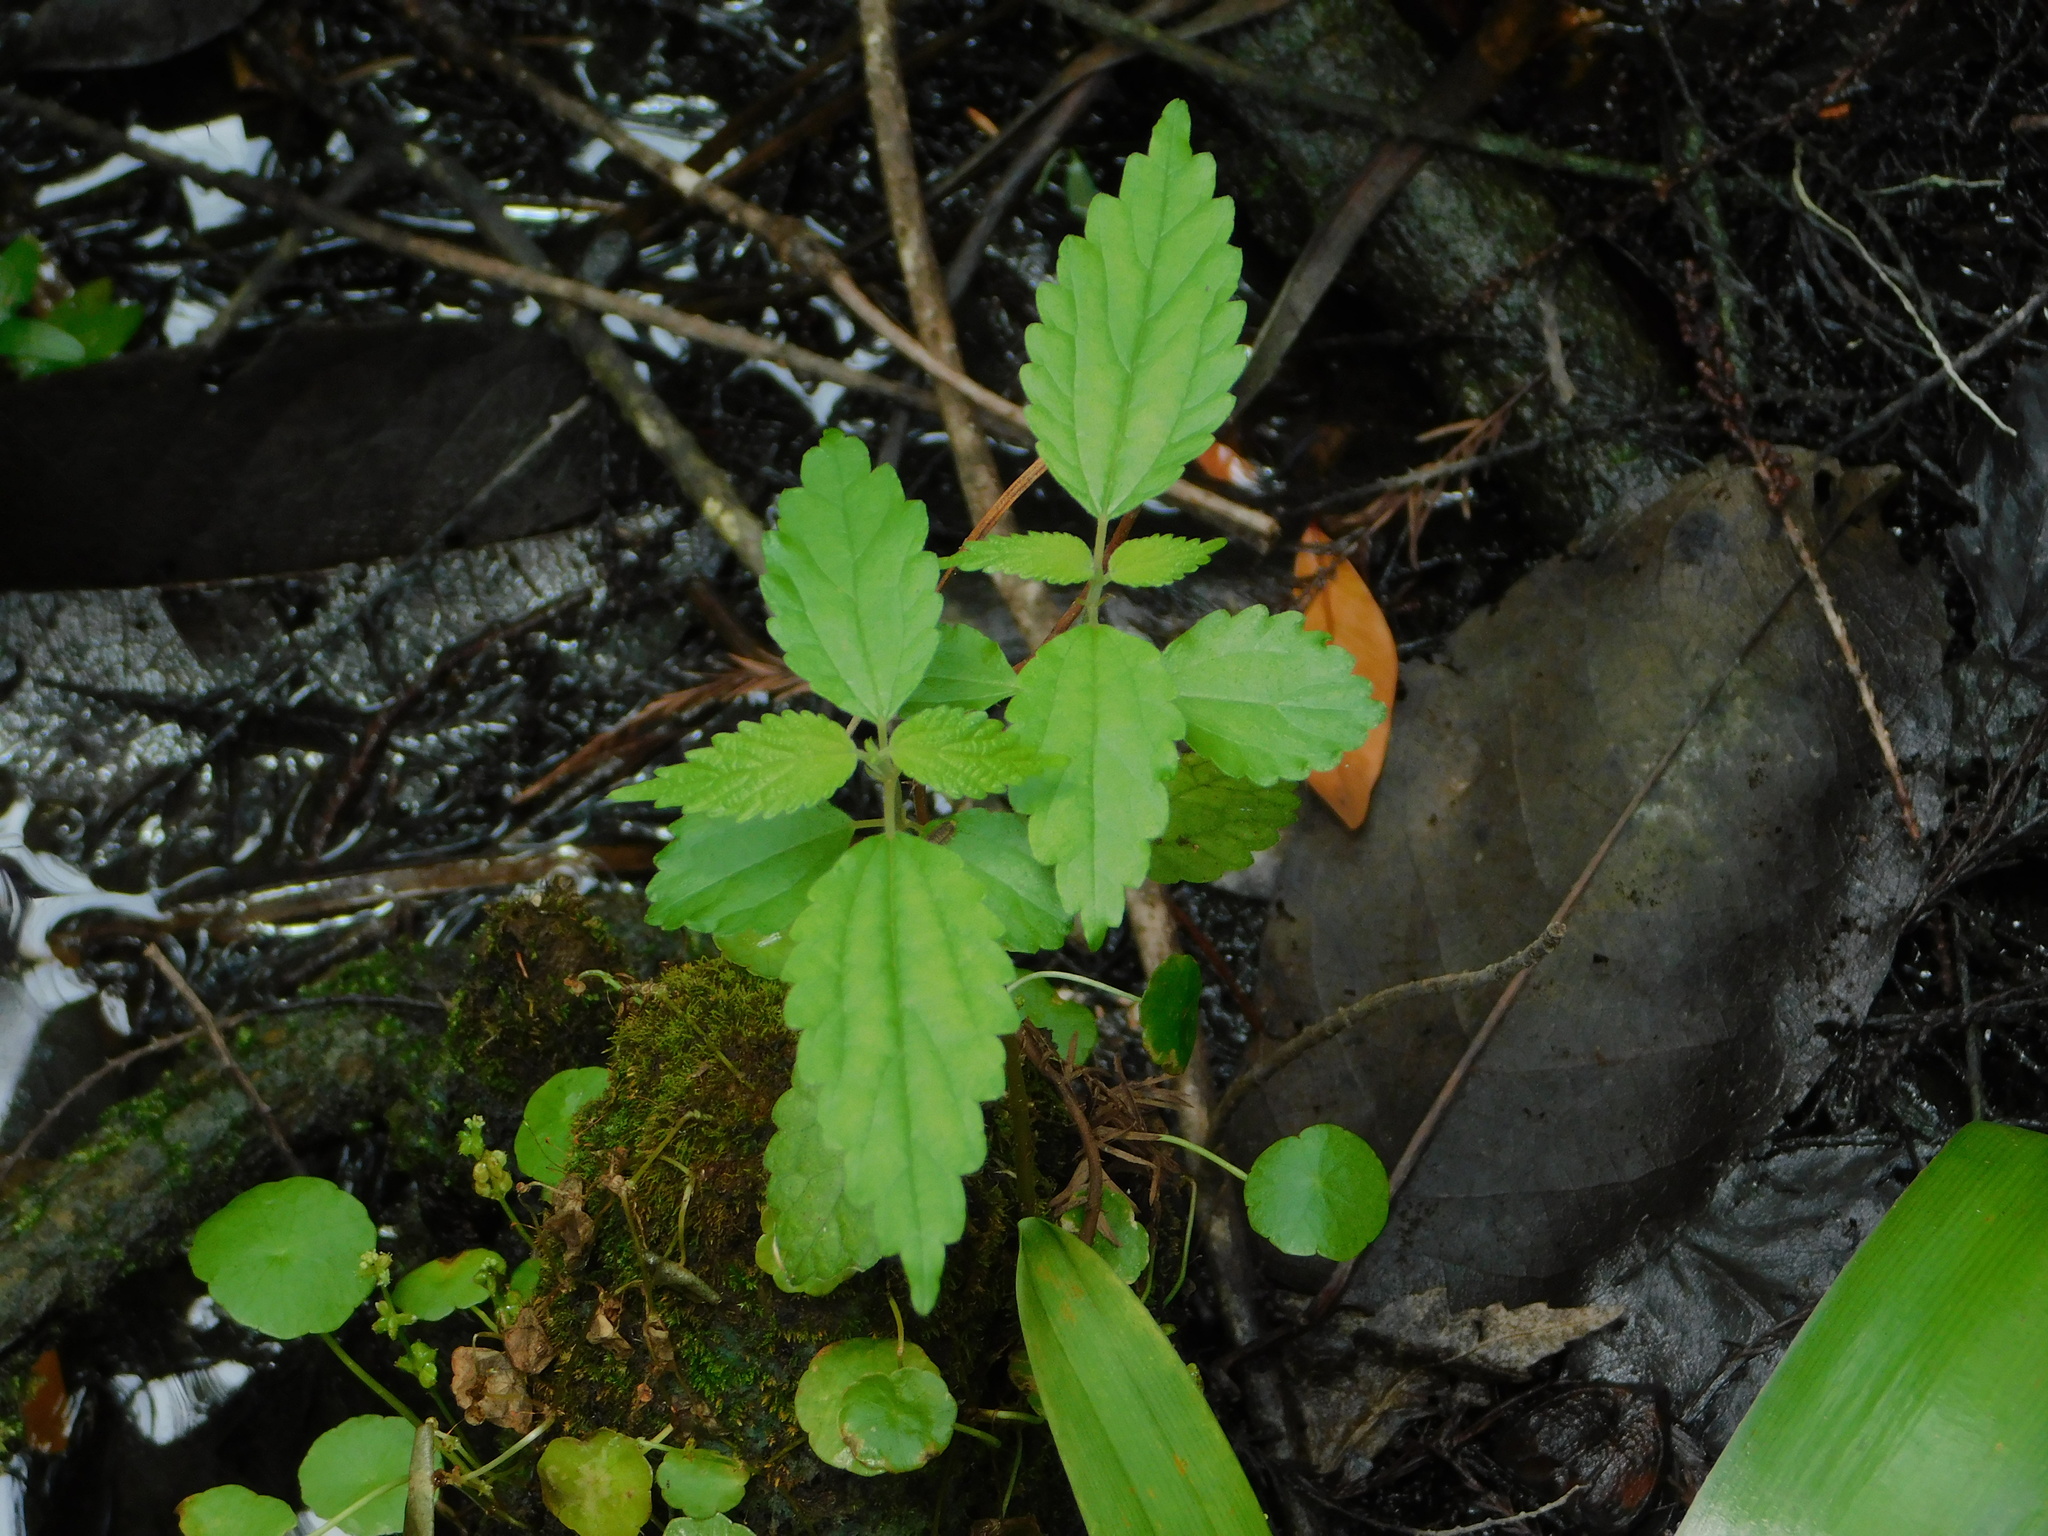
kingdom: Plantae
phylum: Tracheophyta
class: Magnoliopsida
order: Rosales
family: Urticaceae
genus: Boehmeria
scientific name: Boehmeria cylindrica
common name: Bog-hemp
